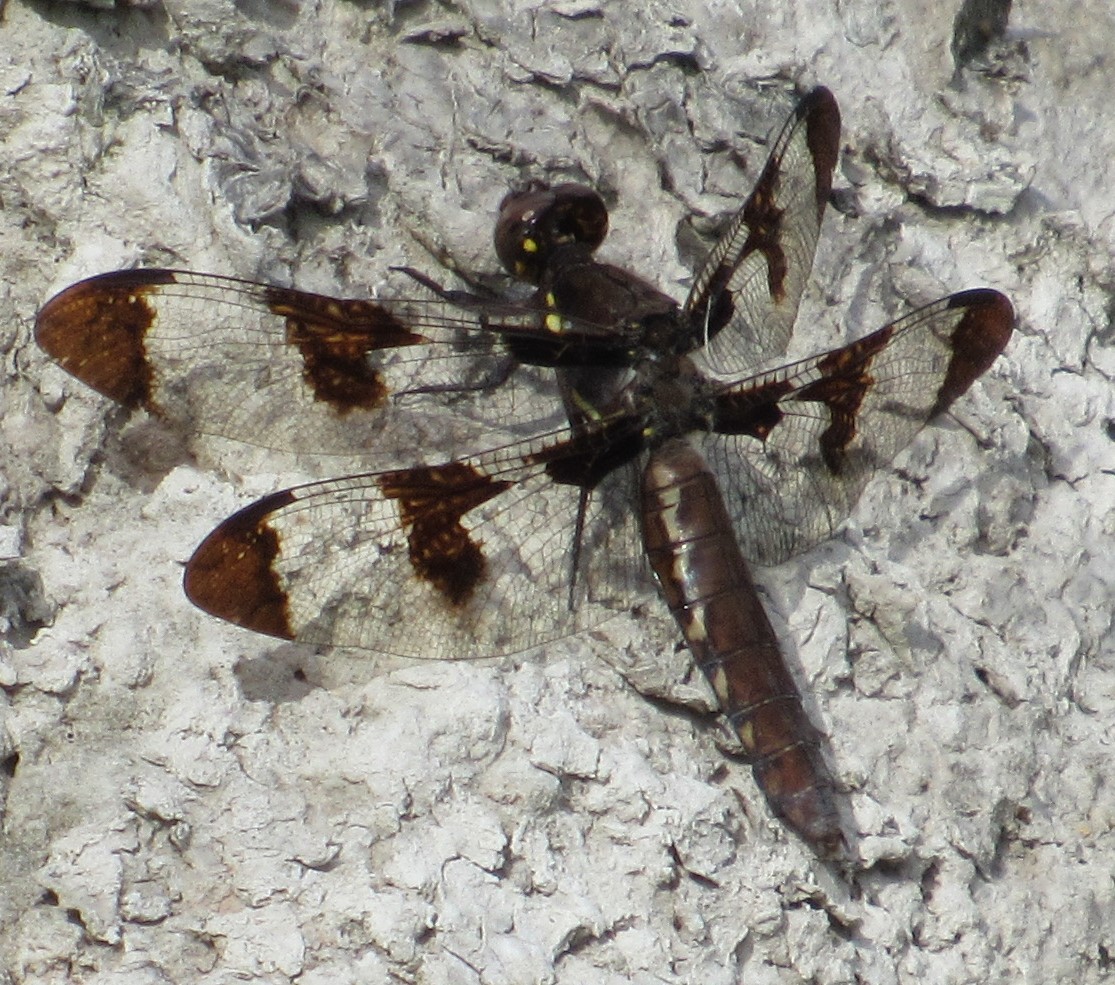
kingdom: Animalia
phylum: Arthropoda
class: Insecta
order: Odonata
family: Libellulidae
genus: Plathemis
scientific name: Plathemis lydia
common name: Common whitetail
